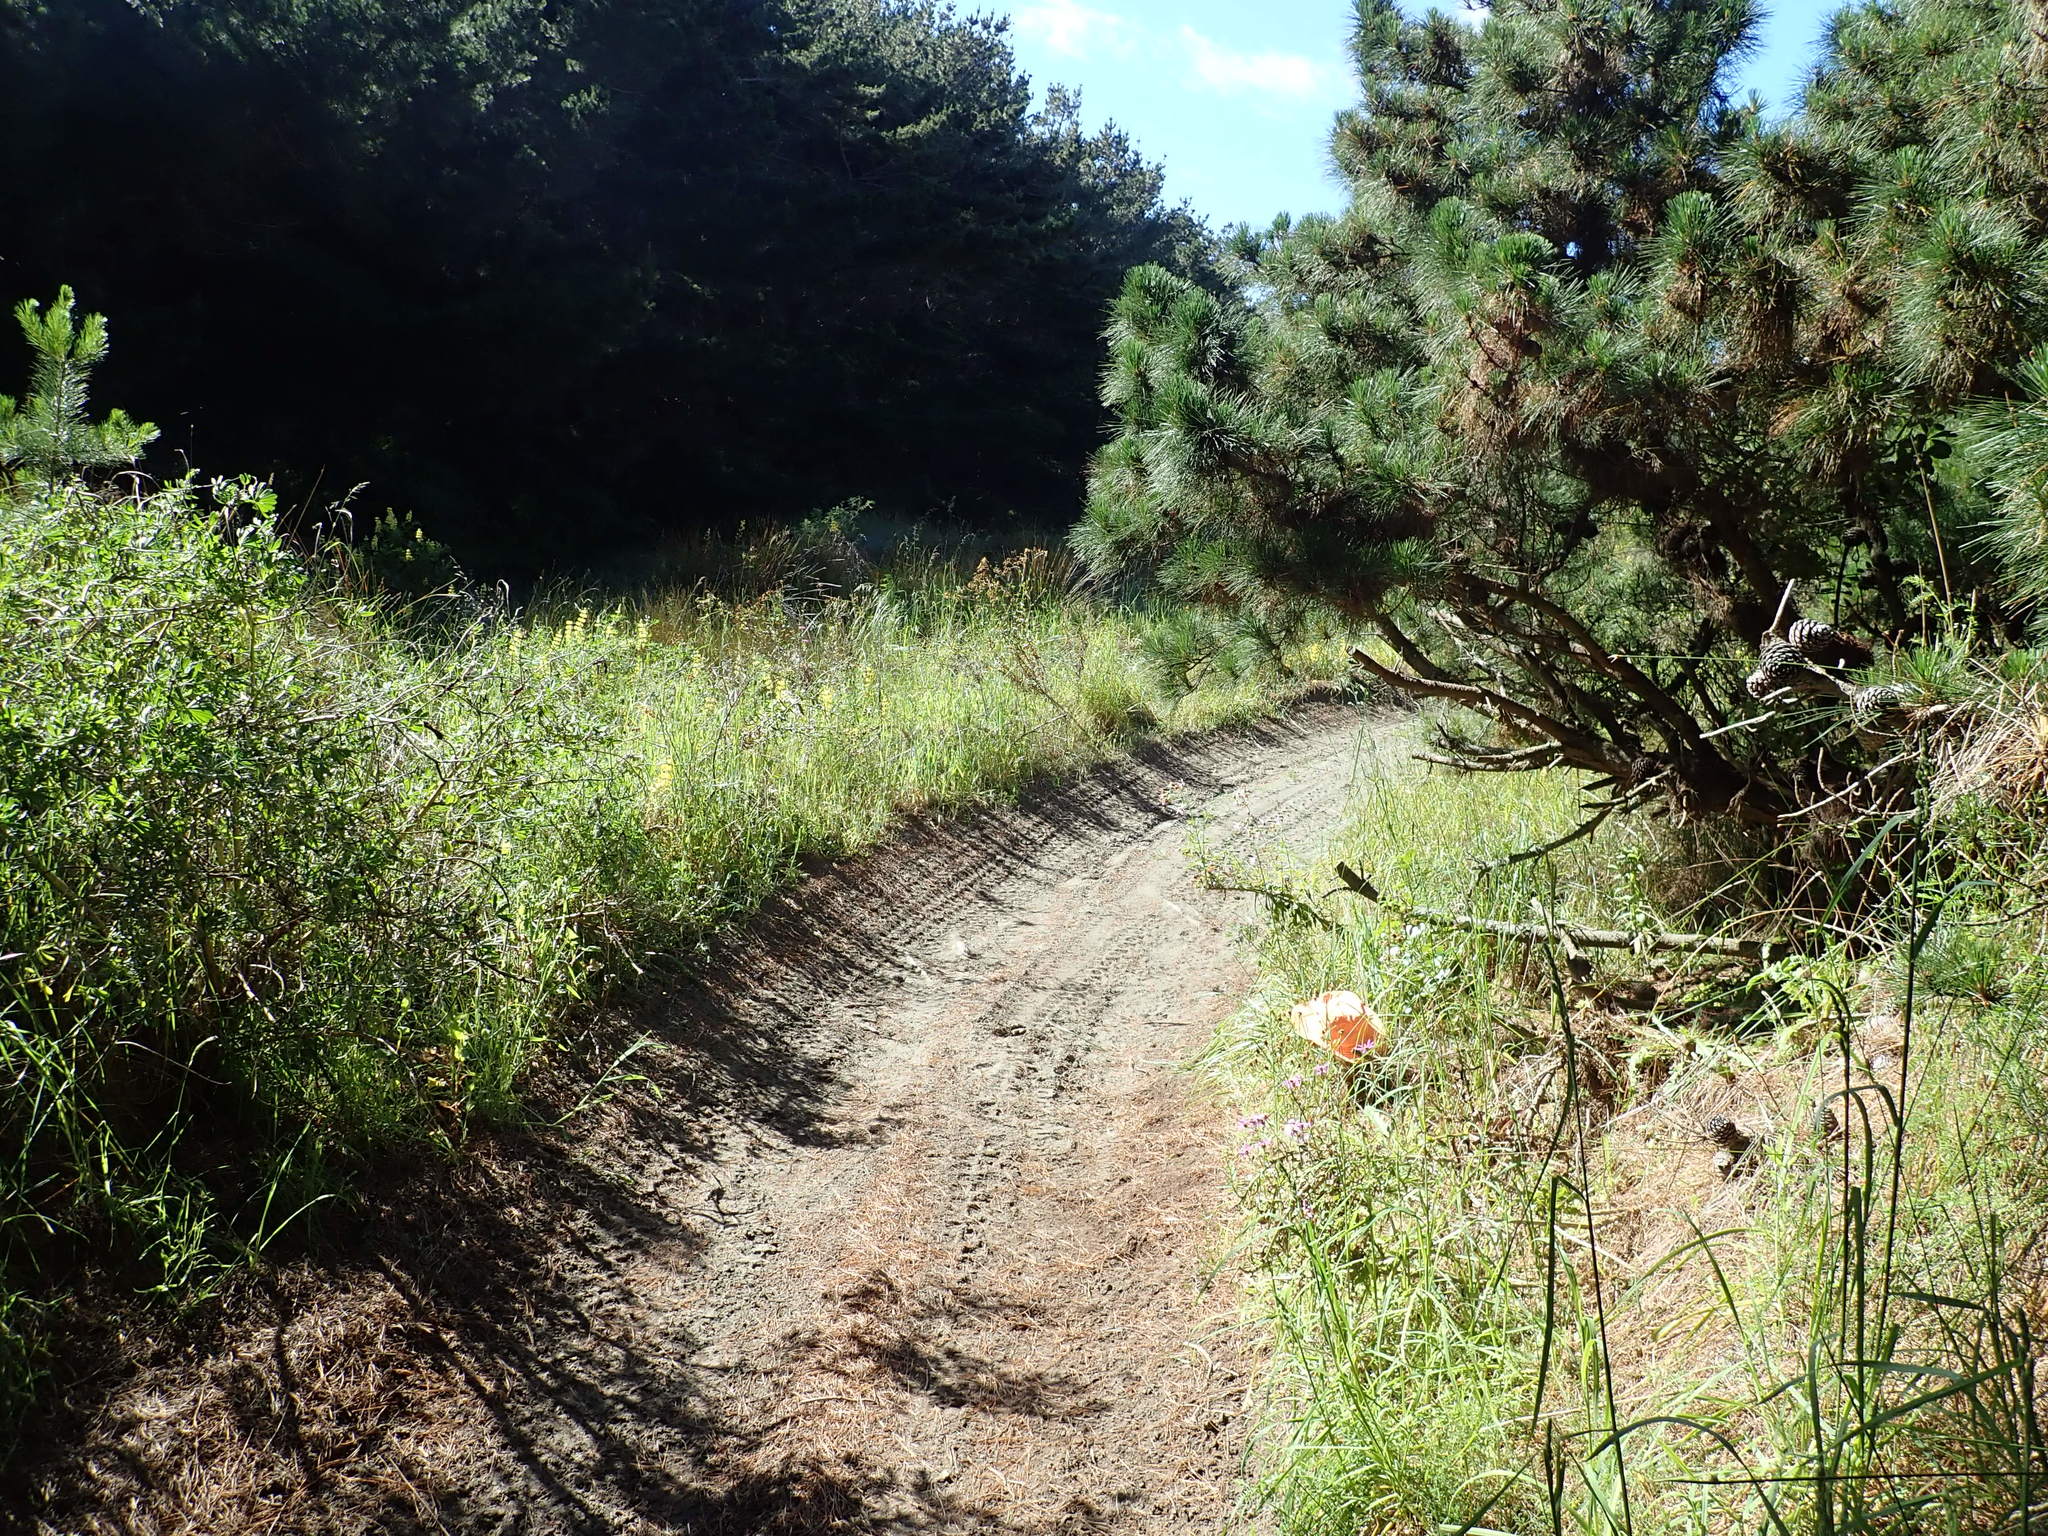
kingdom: Plantae
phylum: Tracheophyta
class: Magnoliopsida
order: Gentianales
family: Rubiaceae
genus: Coprosma
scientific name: Coprosma repens
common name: Tree bedstraw
